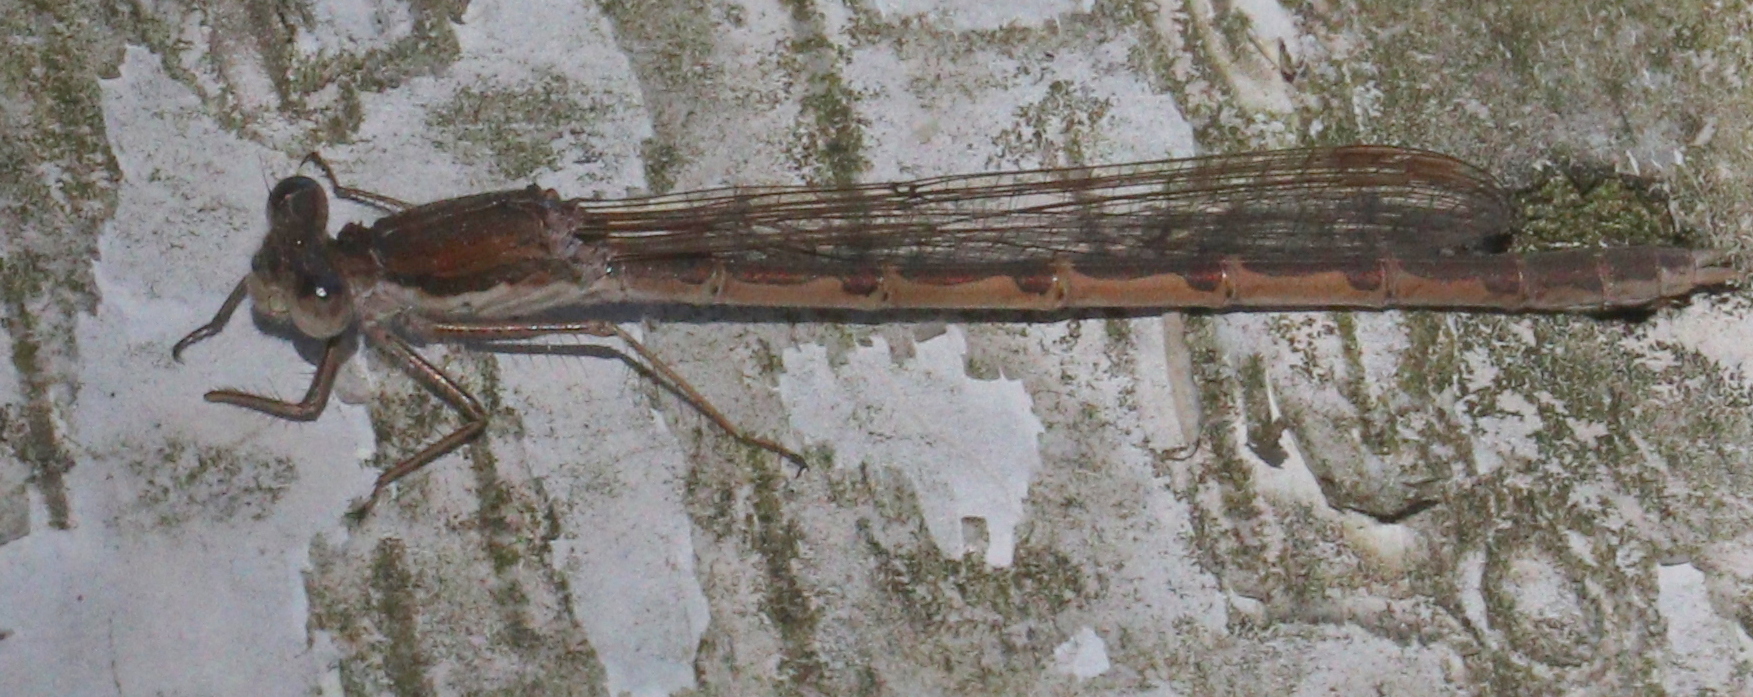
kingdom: Animalia
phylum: Arthropoda
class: Insecta
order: Odonata
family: Lestidae
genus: Sympecma
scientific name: Sympecma fusca
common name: Common winter damsel
